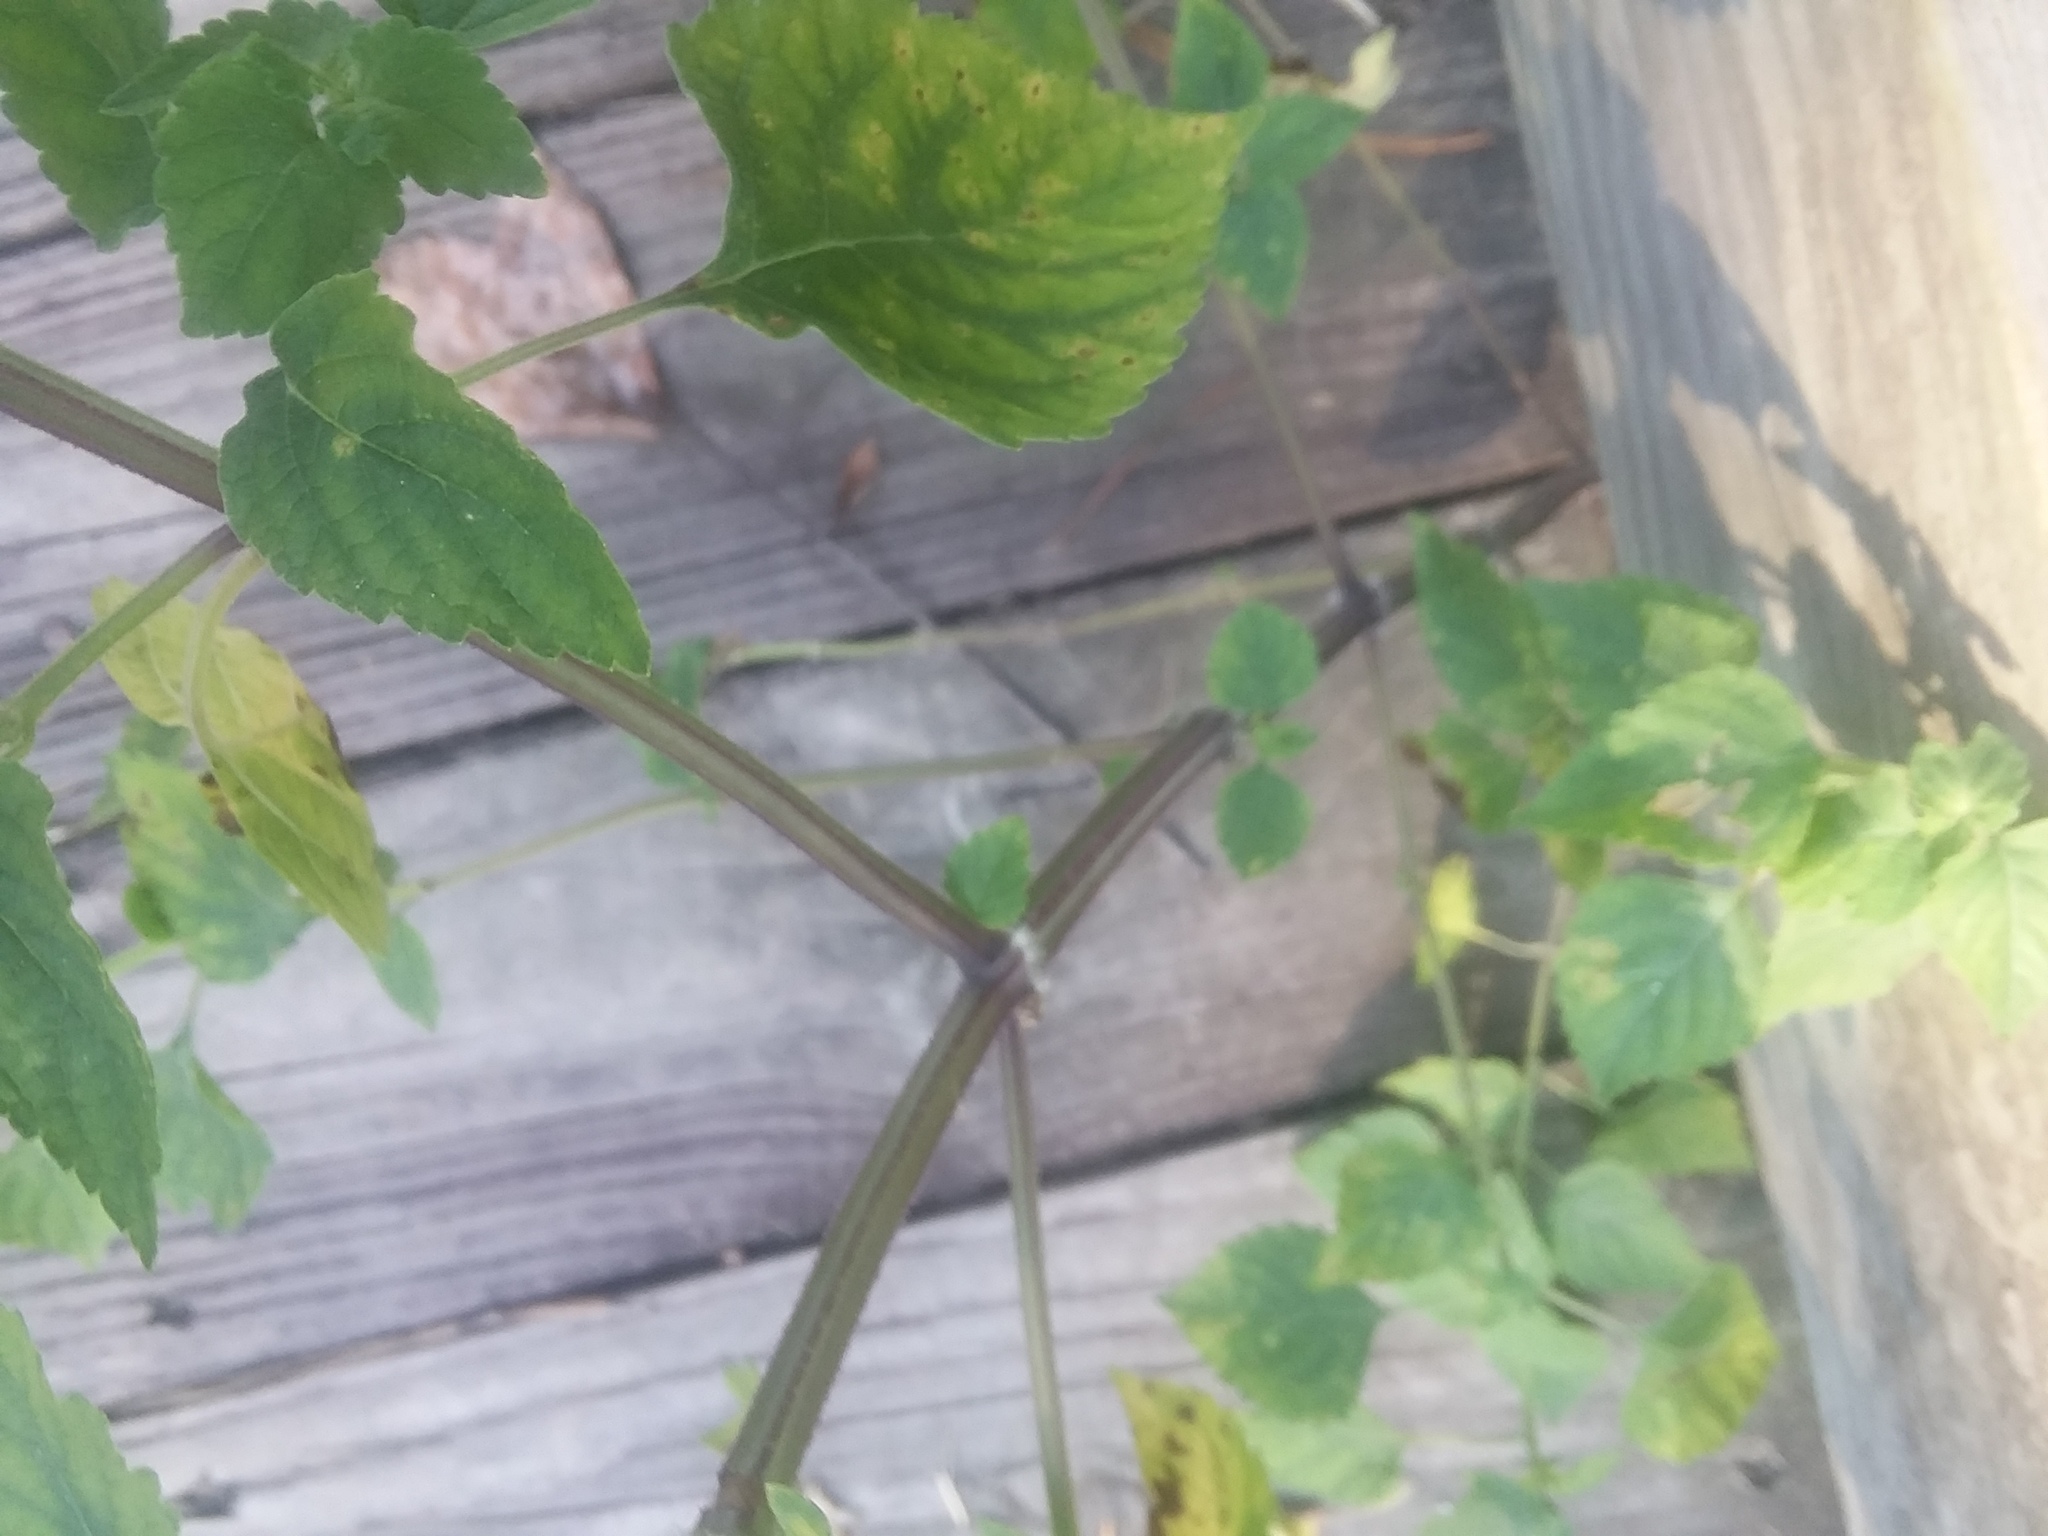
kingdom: Plantae
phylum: Tracheophyta
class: Magnoliopsida
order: Lamiales
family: Lamiaceae
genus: Cantinoa
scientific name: Cantinoa mutabilis
